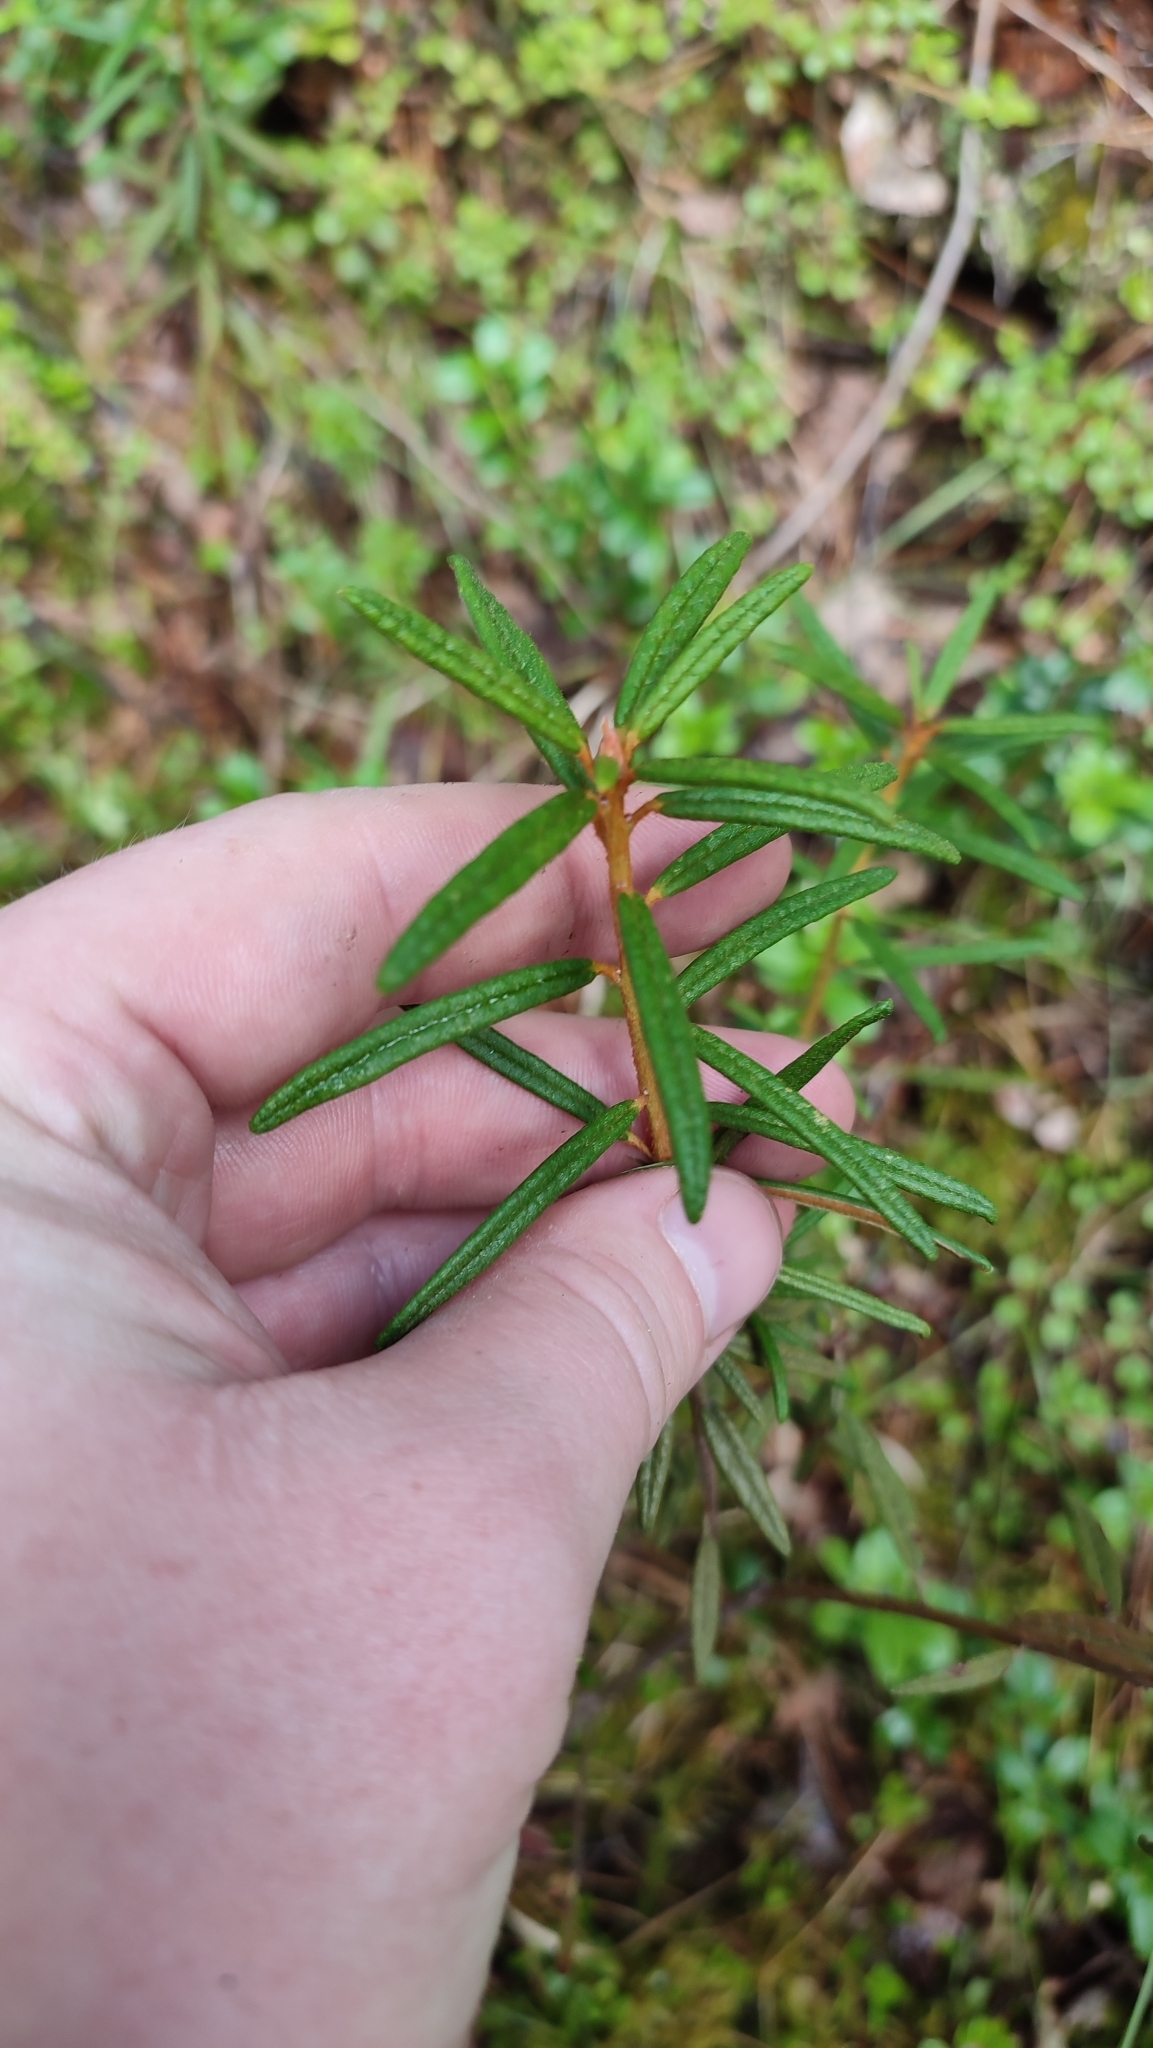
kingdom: Plantae
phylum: Tracheophyta
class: Magnoliopsida
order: Ericales
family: Ericaceae
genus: Rhododendron
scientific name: Rhododendron tomentosum
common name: Marsh labrador tea
